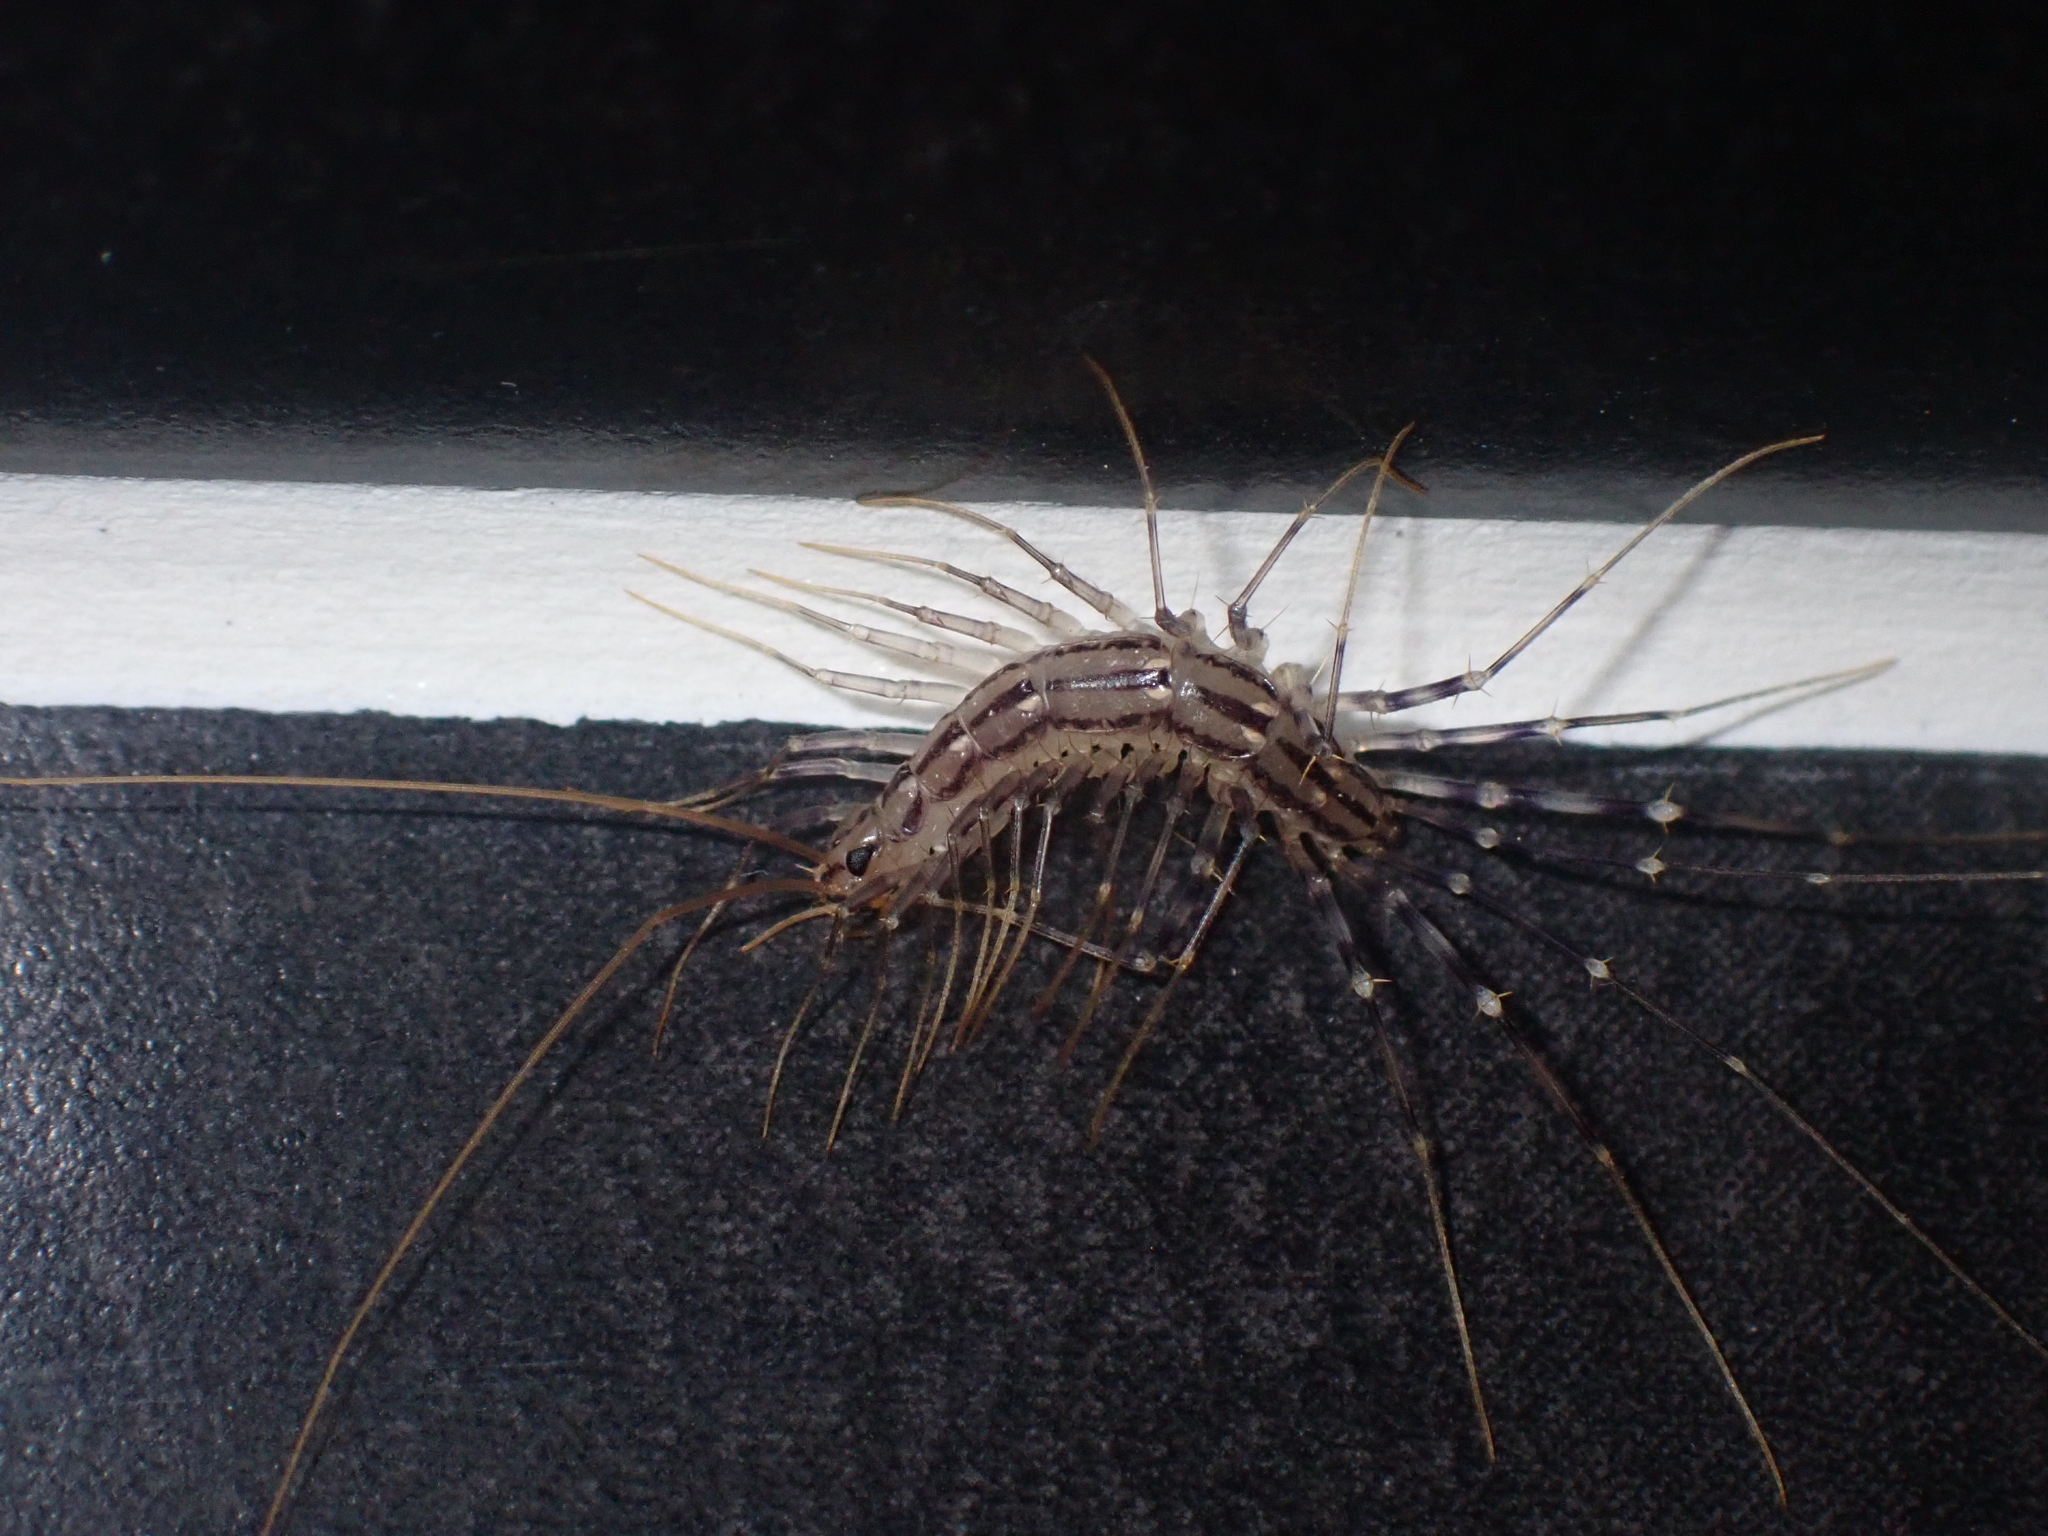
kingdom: Animalia
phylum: Arthropoda
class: Chilopoda
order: Scutigeromorpha
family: Scutigeridae
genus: Scutigera
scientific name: Scutigera coleoptrata
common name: House centipede
